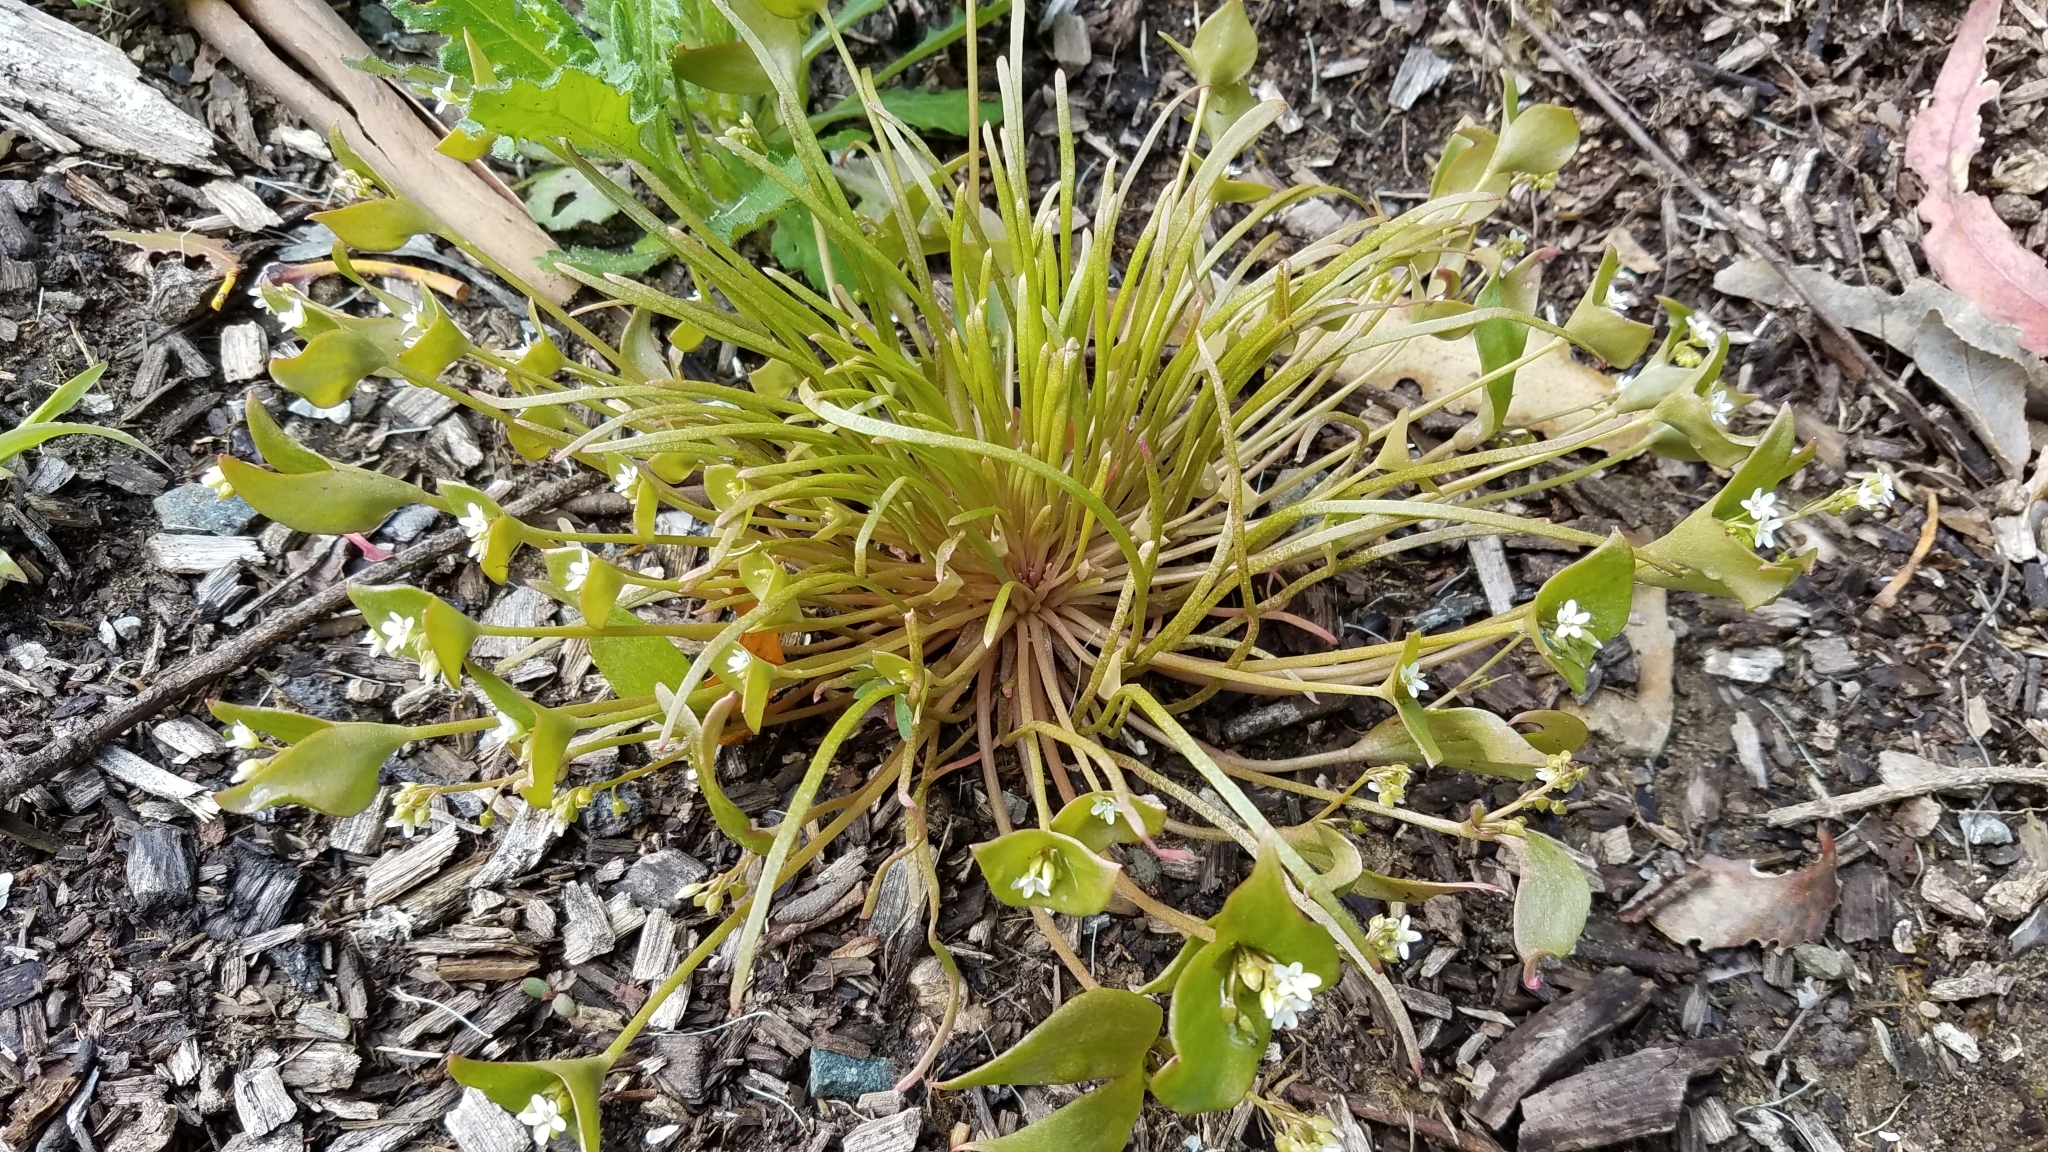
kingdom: Plantae
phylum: Tracheophyta
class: Magnoliopsida
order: Caryophyllales
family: Montiaceae
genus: Claytonia
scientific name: Claytonia parviflora
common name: Indian-lettuce
